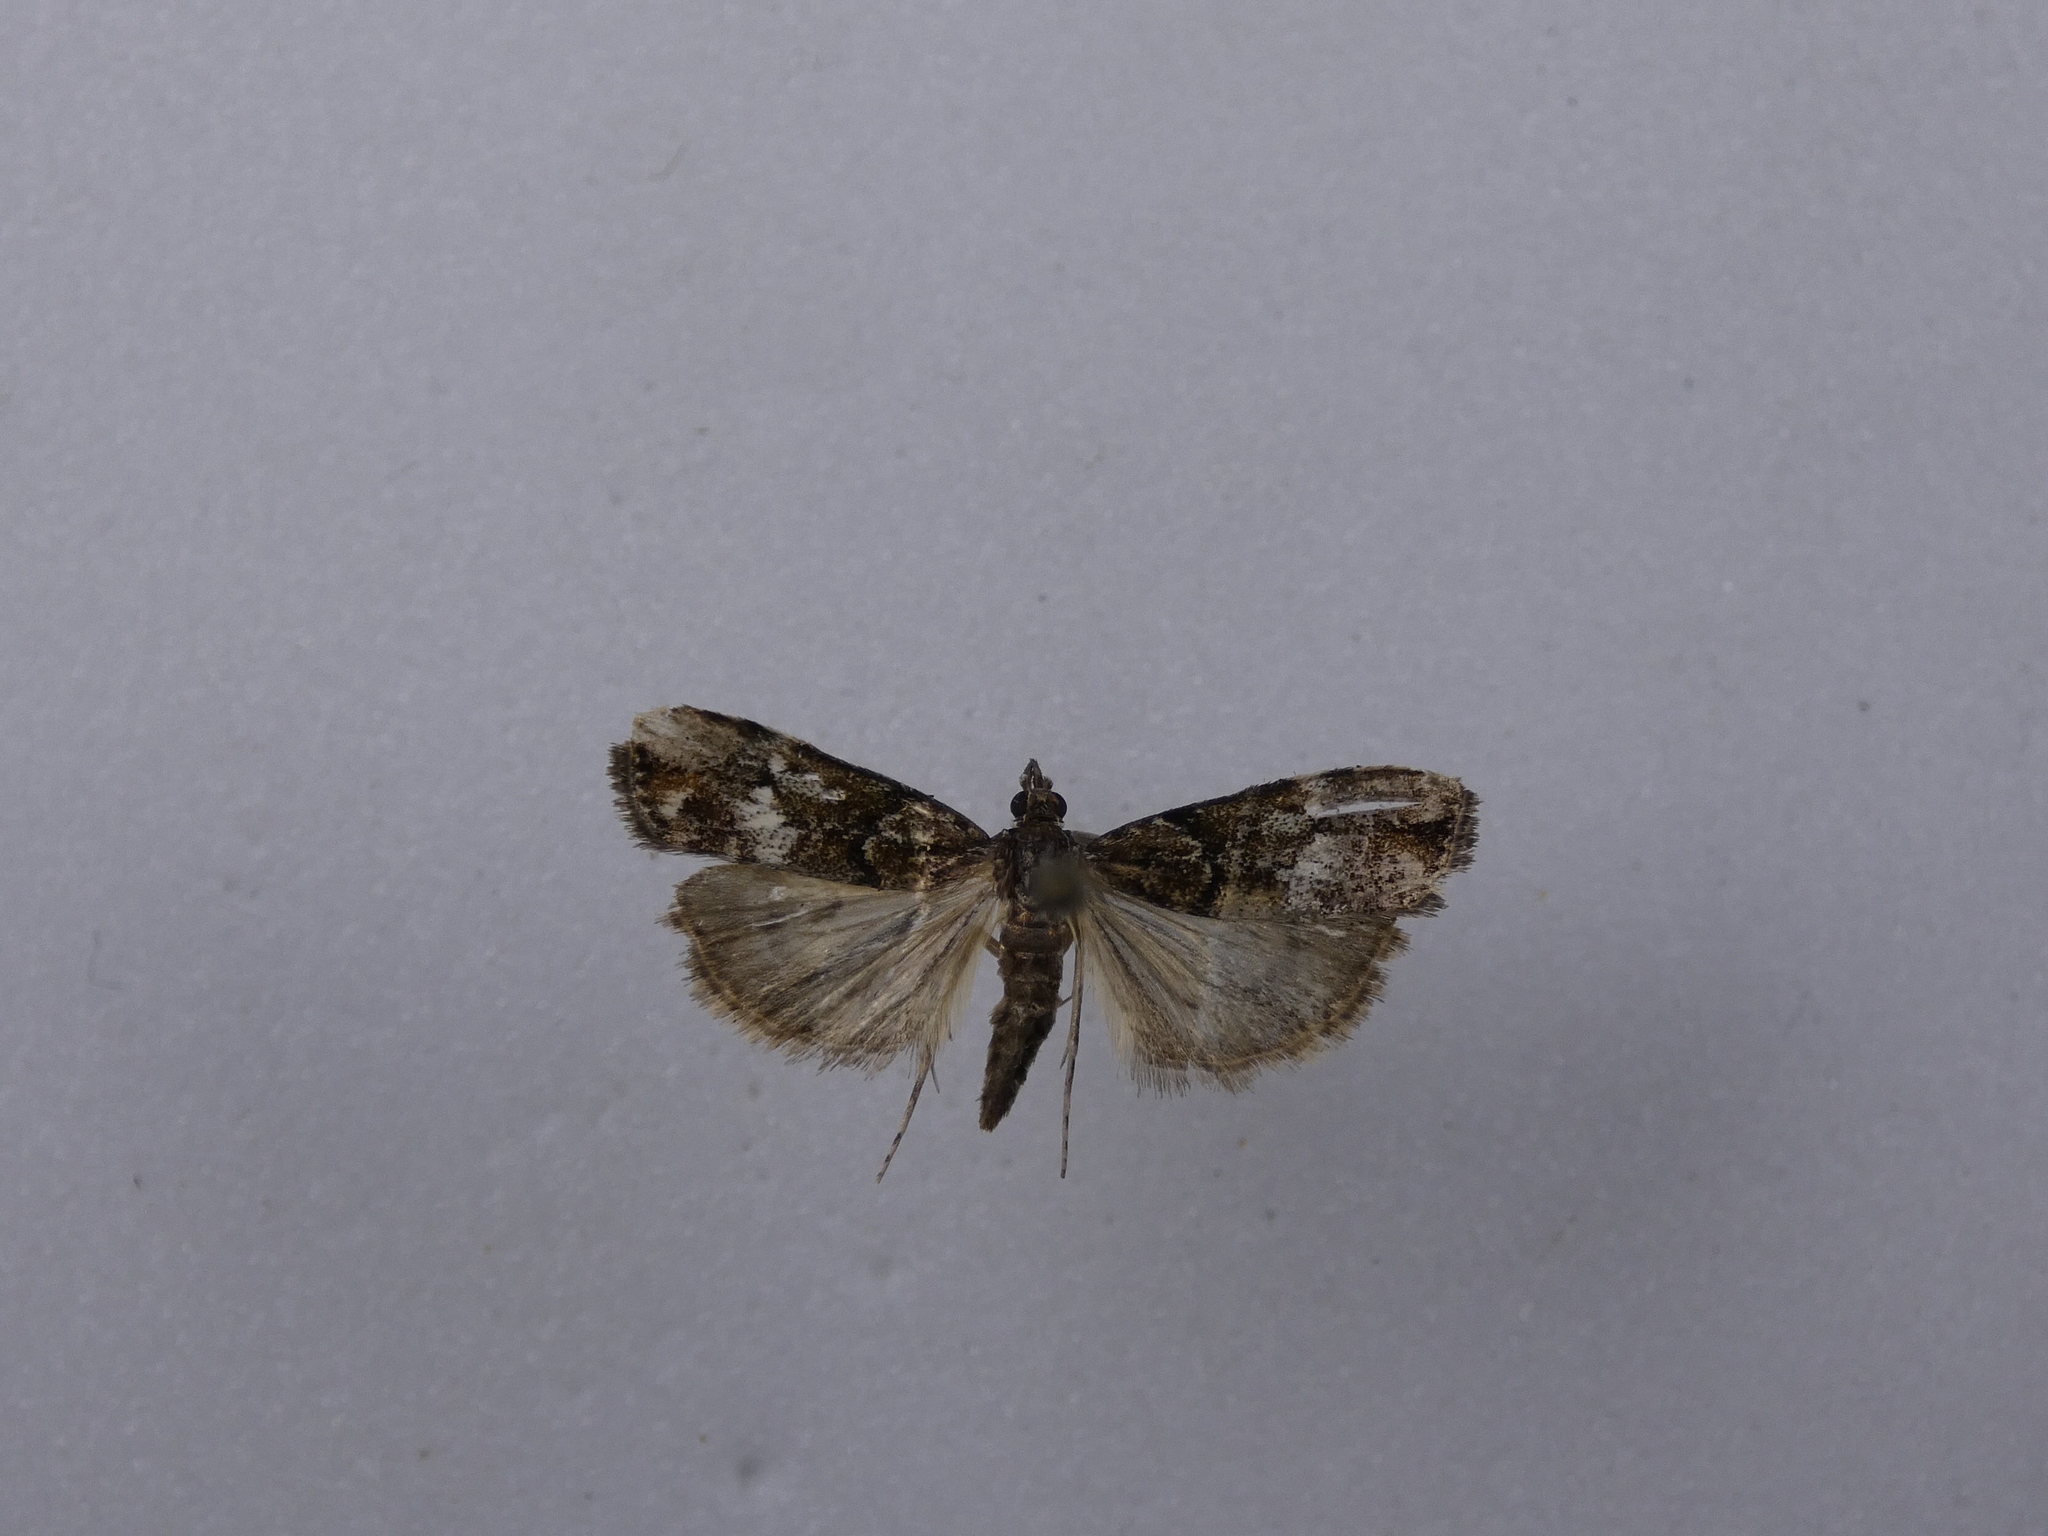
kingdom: Animalia
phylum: Arthropoda
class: Insecta
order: Lepidoptera
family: Crambidae
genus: Eudonia
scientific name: Eudonia minualis
